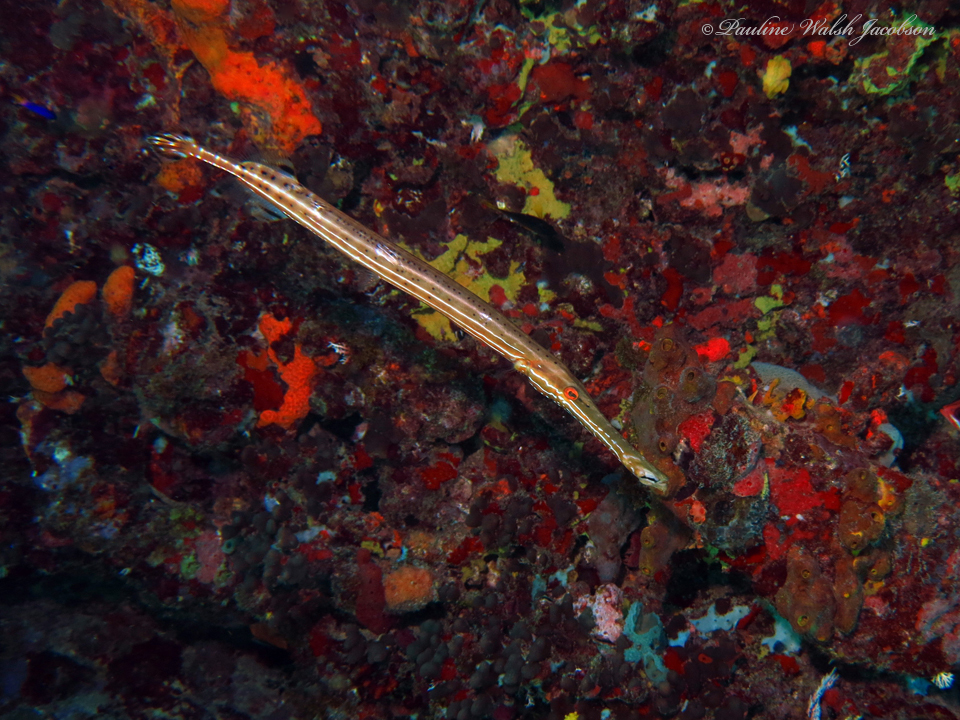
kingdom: Animalia
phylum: Chordata
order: Syngnathiformes
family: Aulostomidae
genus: Aulostomus
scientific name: Aulostomus maculatus
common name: West atlantic trumpetfish
